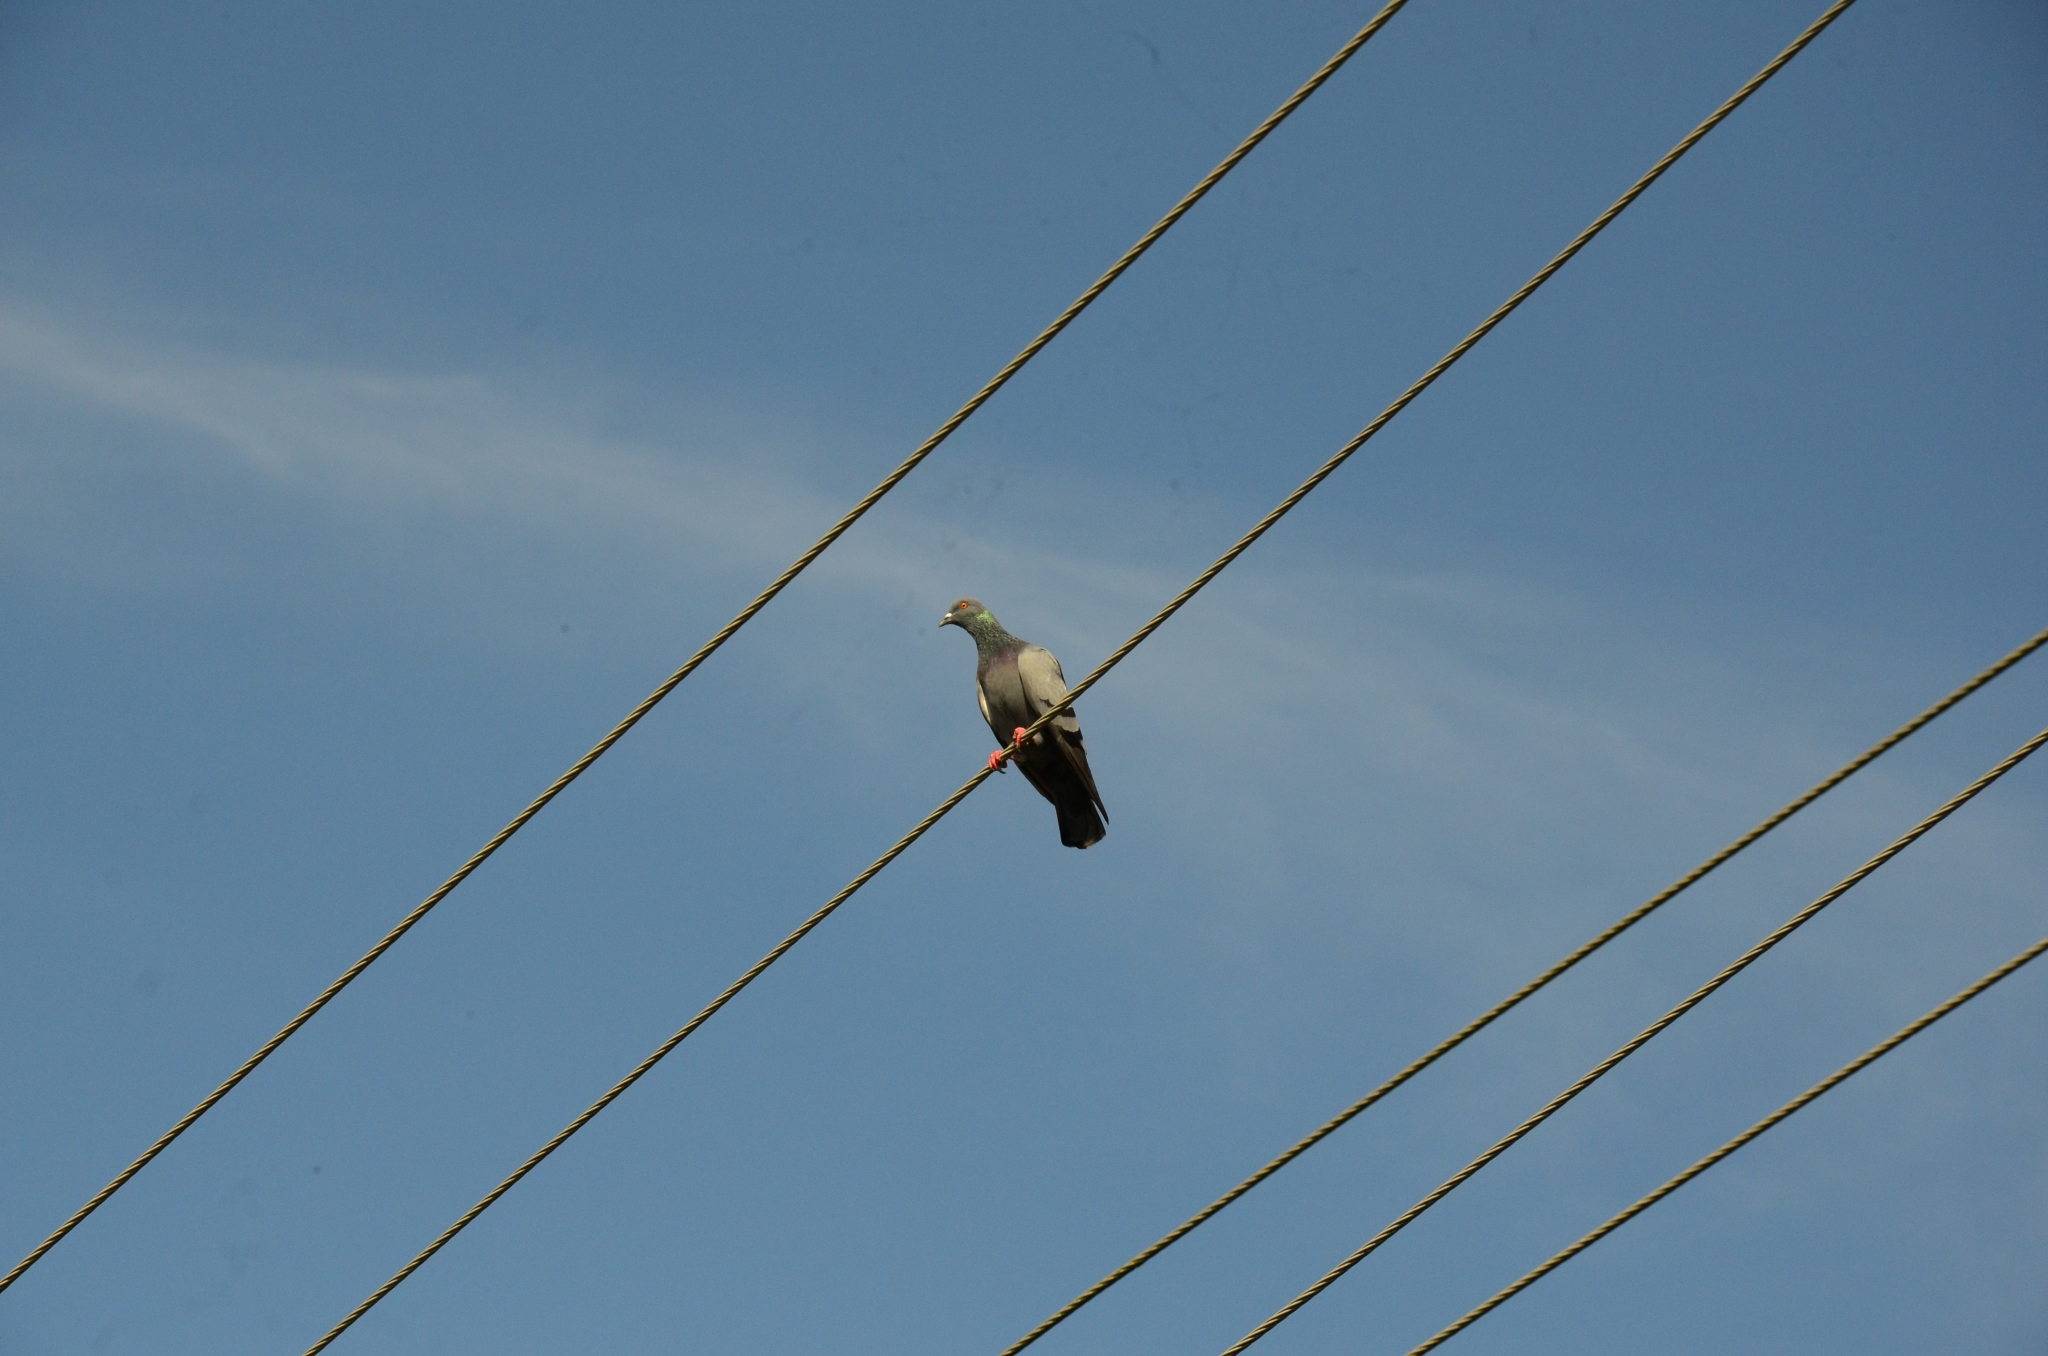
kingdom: Animalia
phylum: Chordata
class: Aves
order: Columbiformes
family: Columbidae
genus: Columba
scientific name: Columba livia
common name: Rock pigeon
